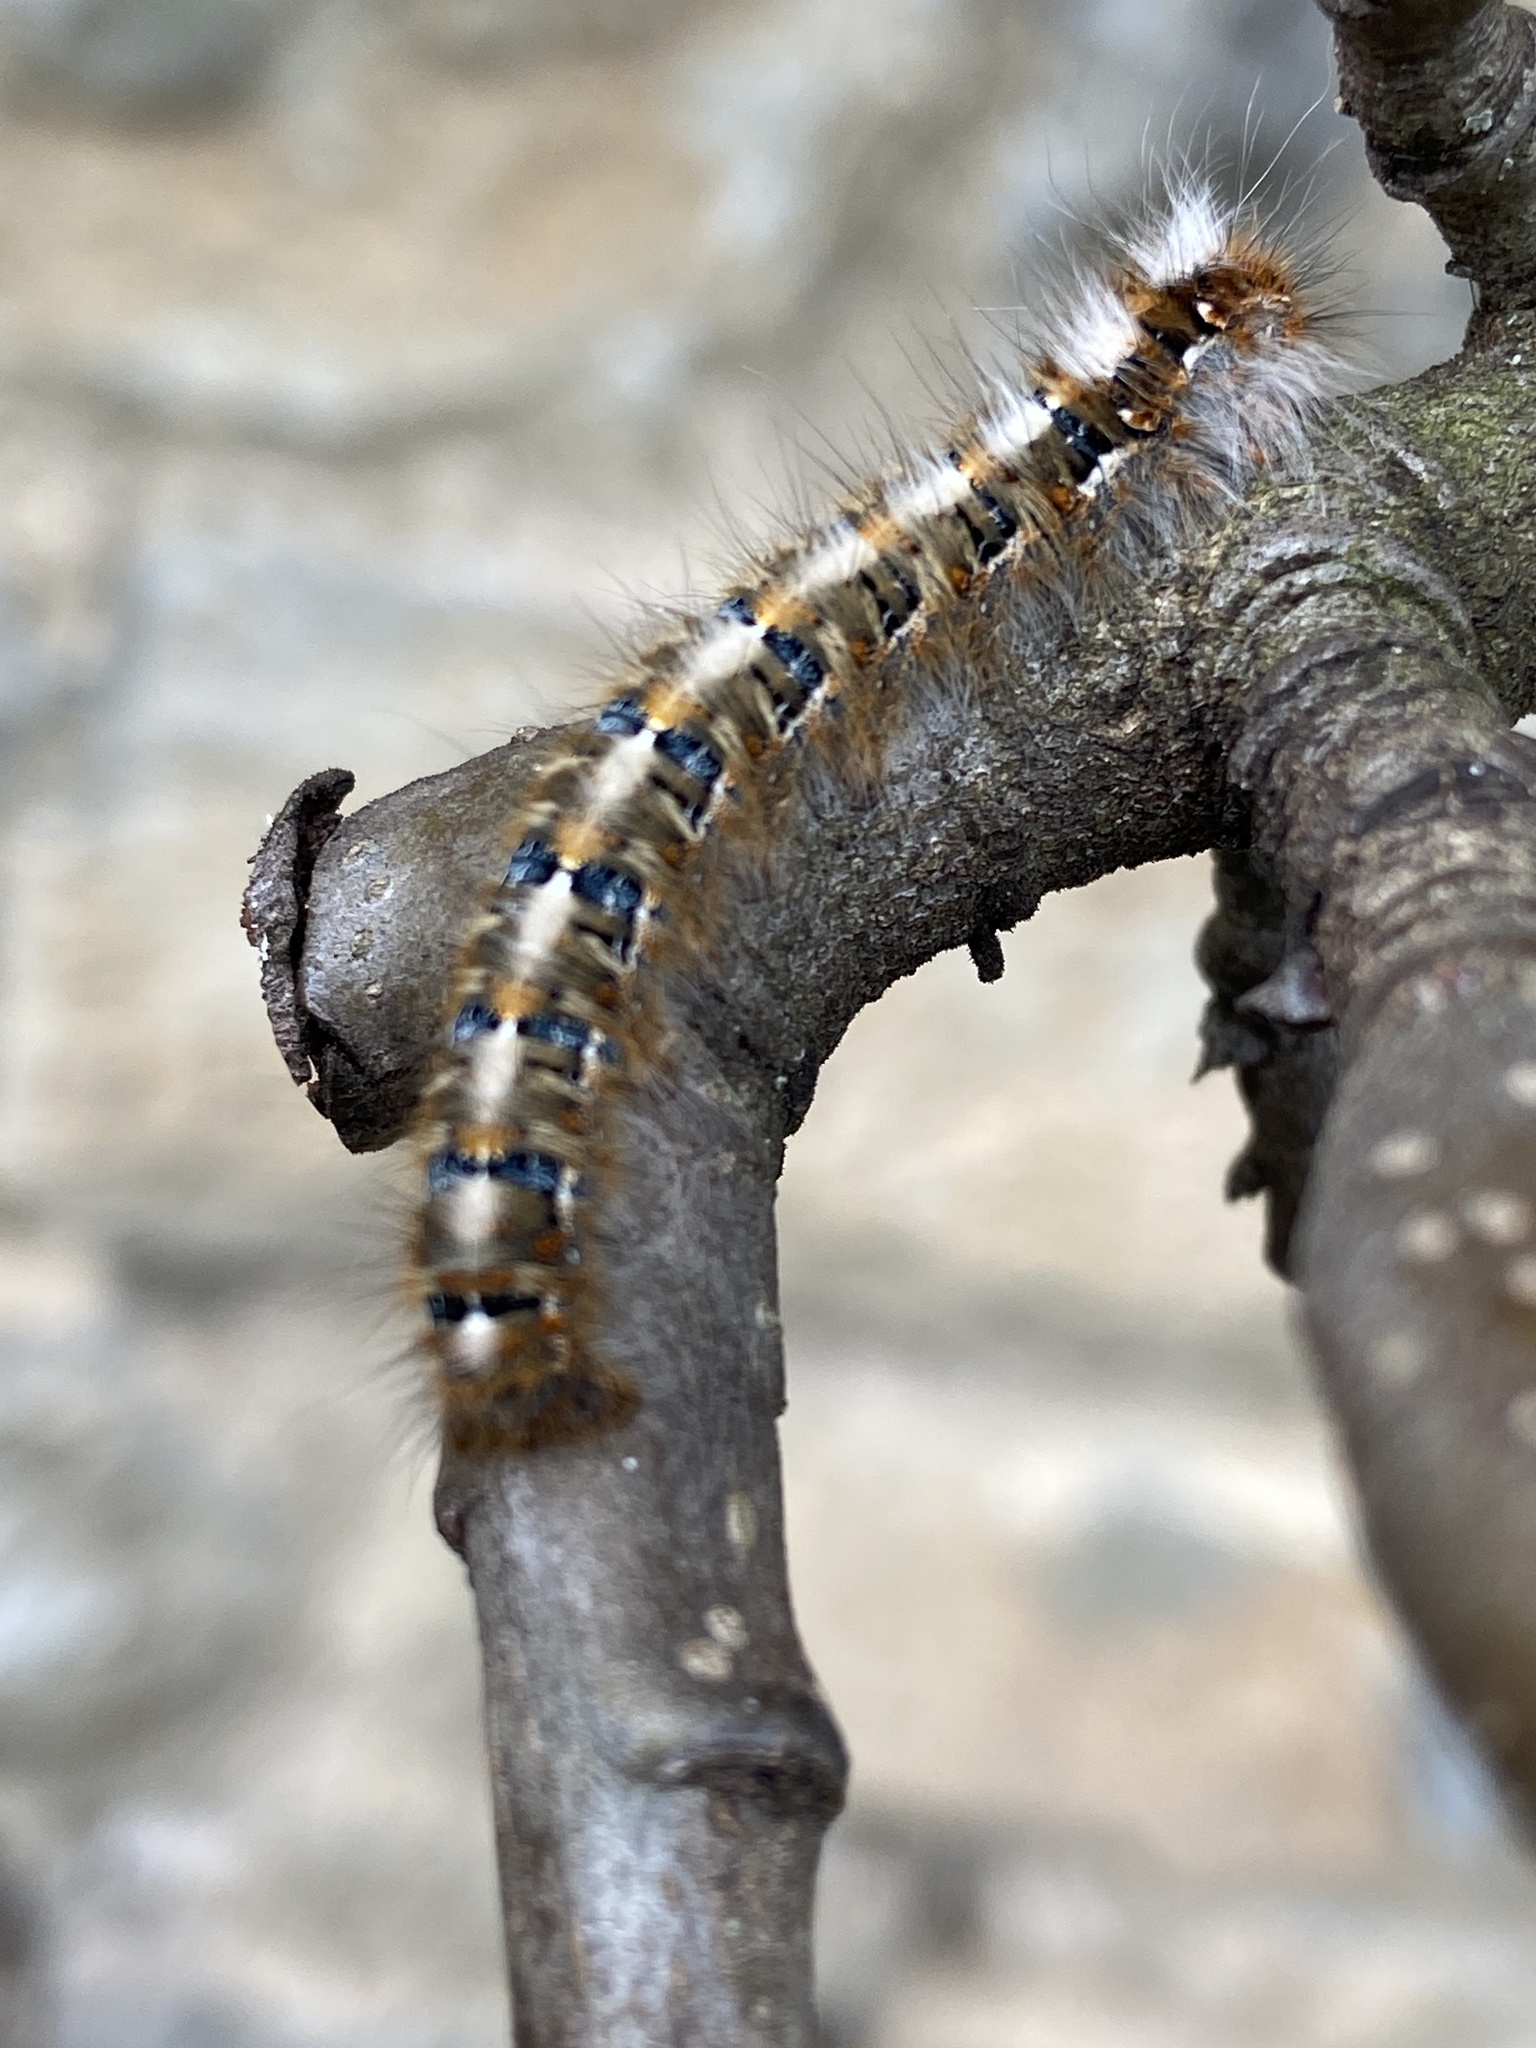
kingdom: Animalia
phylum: Arthropoda
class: Insecta
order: Lepidoptera
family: Lasiocampidae
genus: Lasiocampa
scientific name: Lasiocampa quercus
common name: Oak eggar
